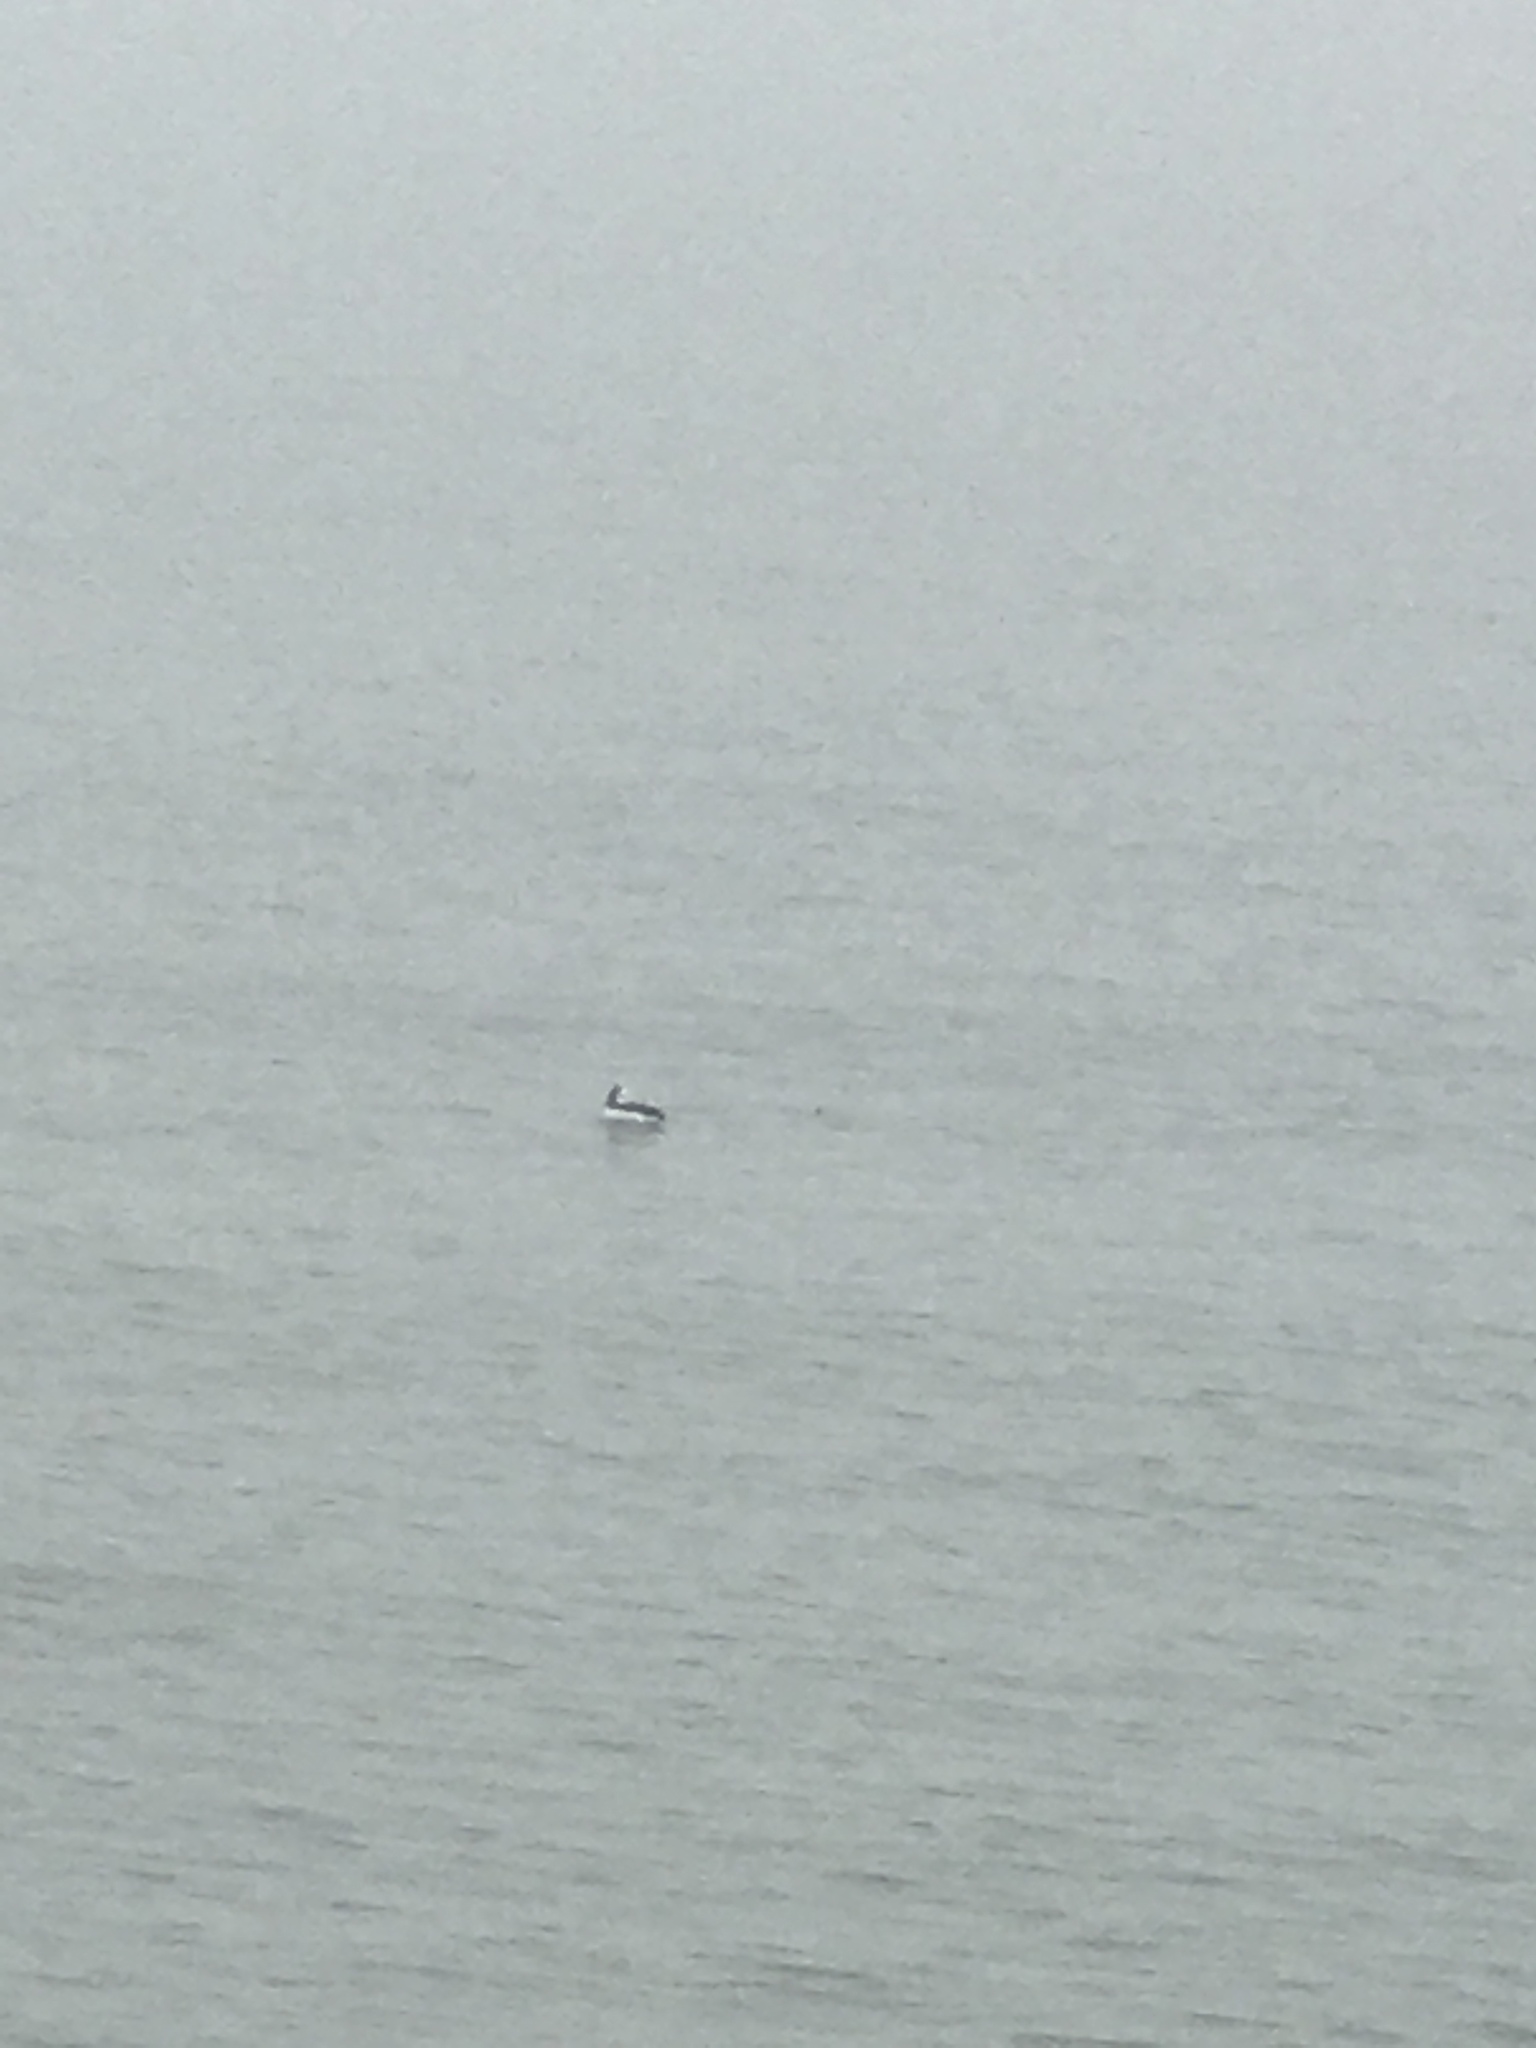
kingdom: Animalia
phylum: Chordata
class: Aves
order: Anseriformes
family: Anatidae
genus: Bucephala
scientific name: Bucephala albeola
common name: Bufflehead
